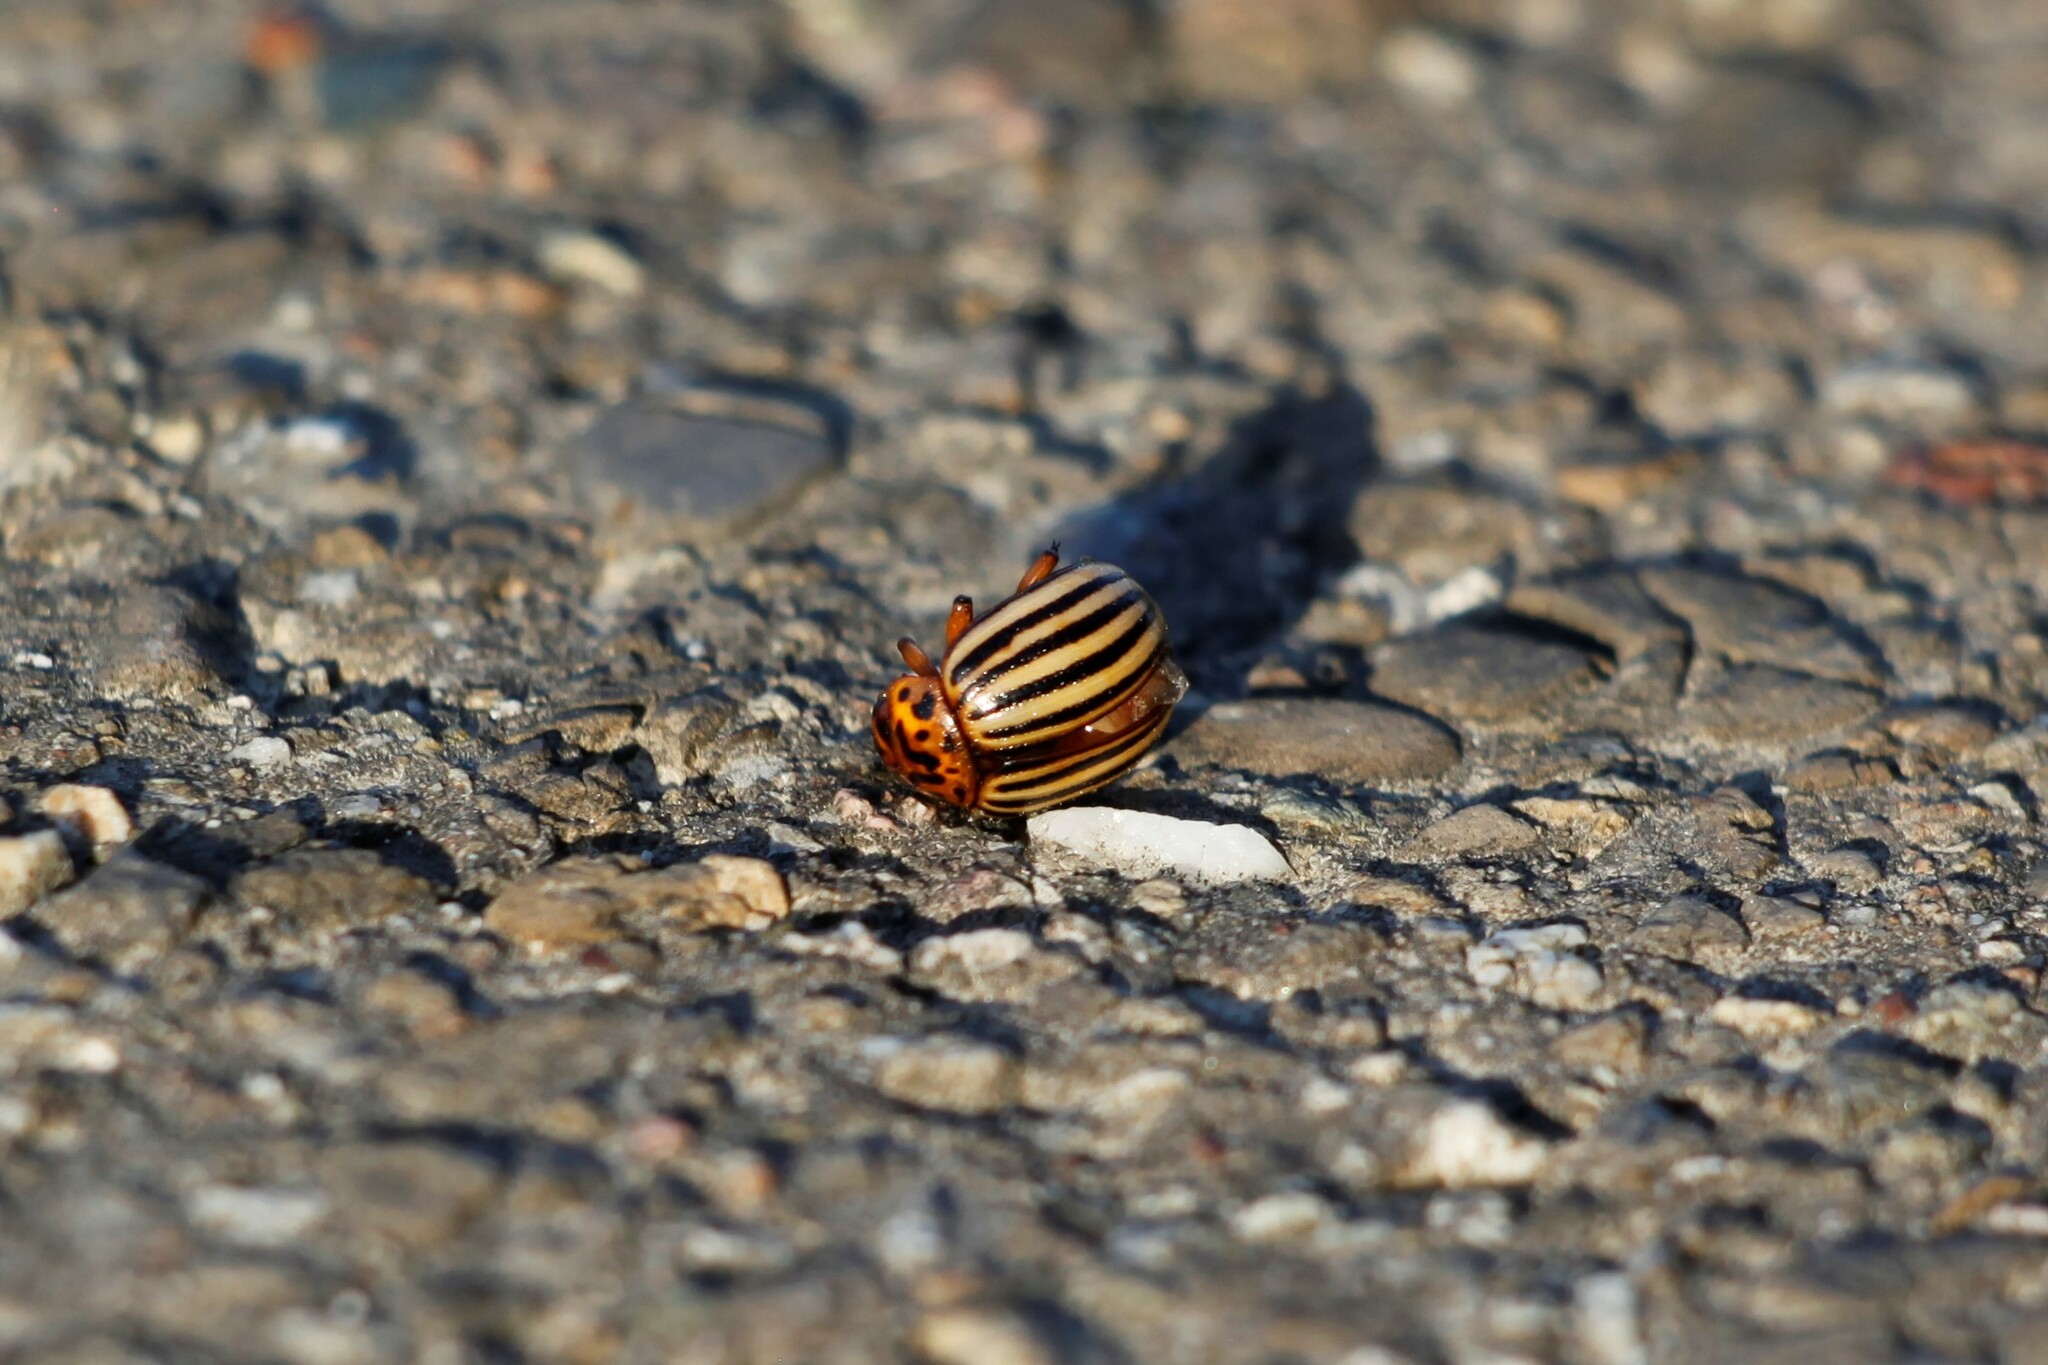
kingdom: Animalia
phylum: Arthropoda
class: Insecta
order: Coleoptera
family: Chrysomelidae
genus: Leptinotarsa
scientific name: Leptinotarsa decemlineata
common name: Colorado potato beetle
